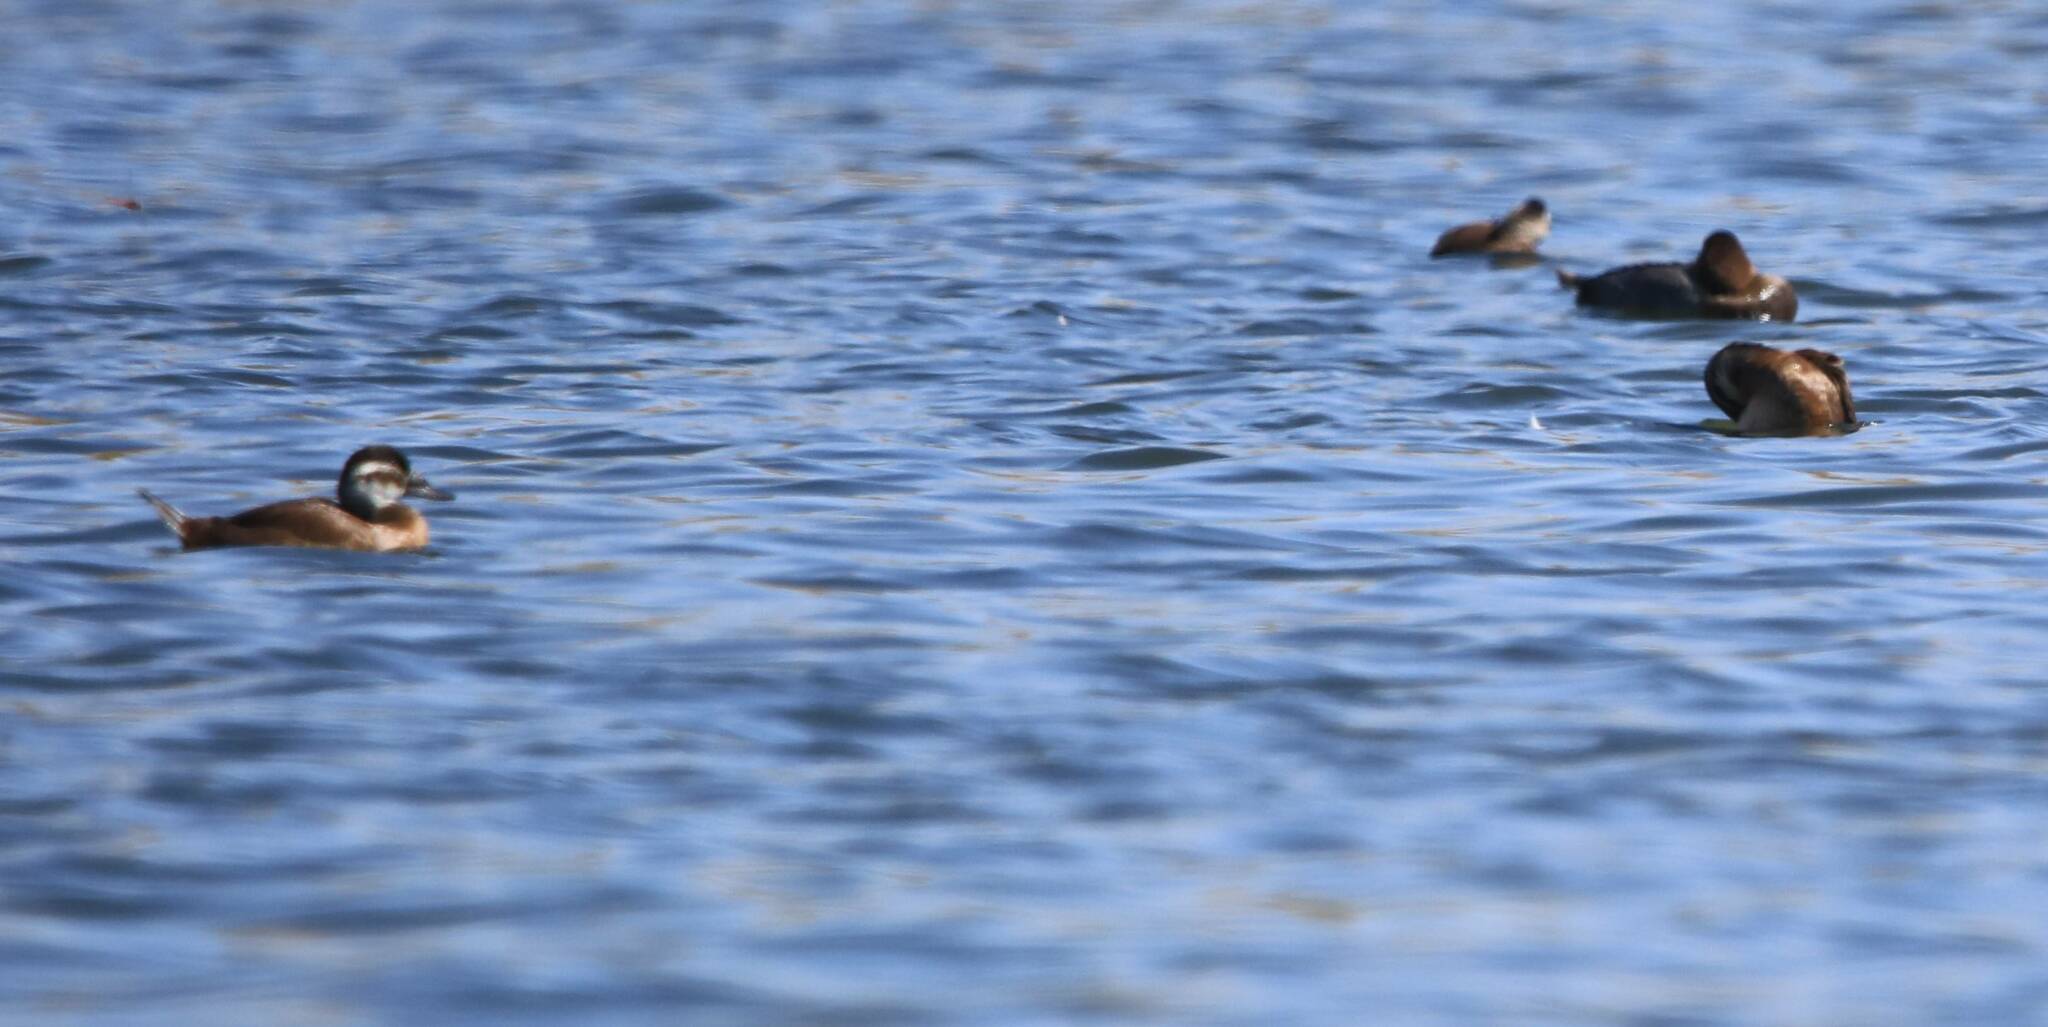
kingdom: Animalia
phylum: Chordata
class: Aves
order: Anseriformes
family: Anatidae
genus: Oxyura
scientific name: Oxyura leucocephala
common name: White-headed duck
